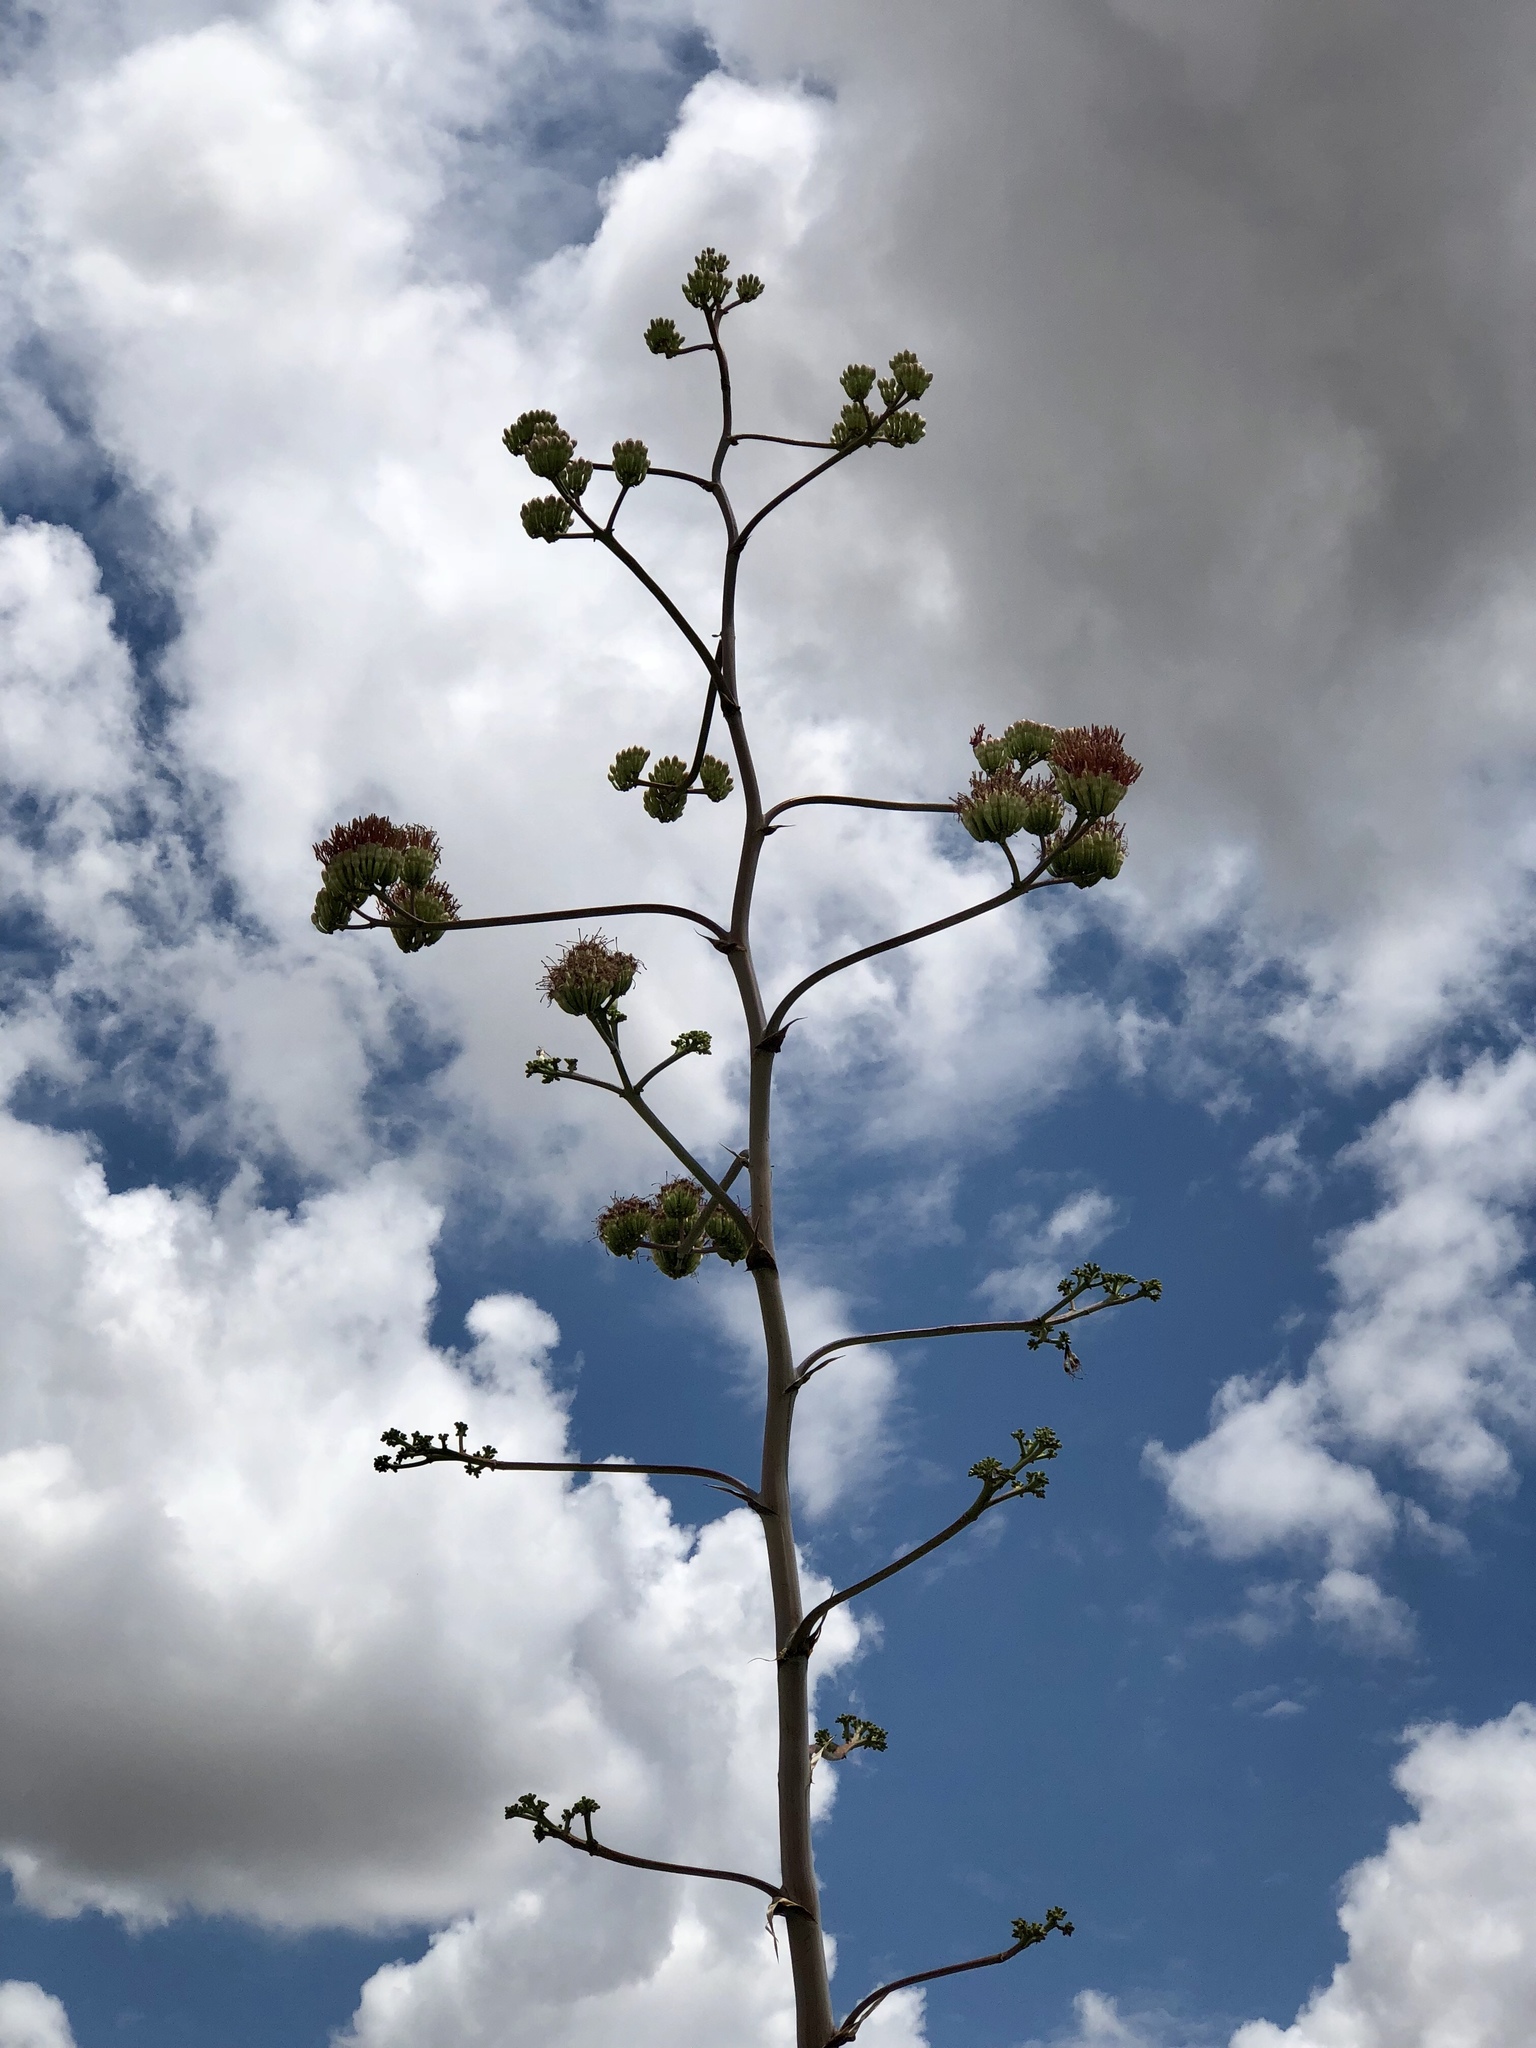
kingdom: Plantae
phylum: Tracheophyta
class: Liliopsida
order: Asparagales
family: Asparagaceae
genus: Agave
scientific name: Agave palmeri
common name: Palmer agave
